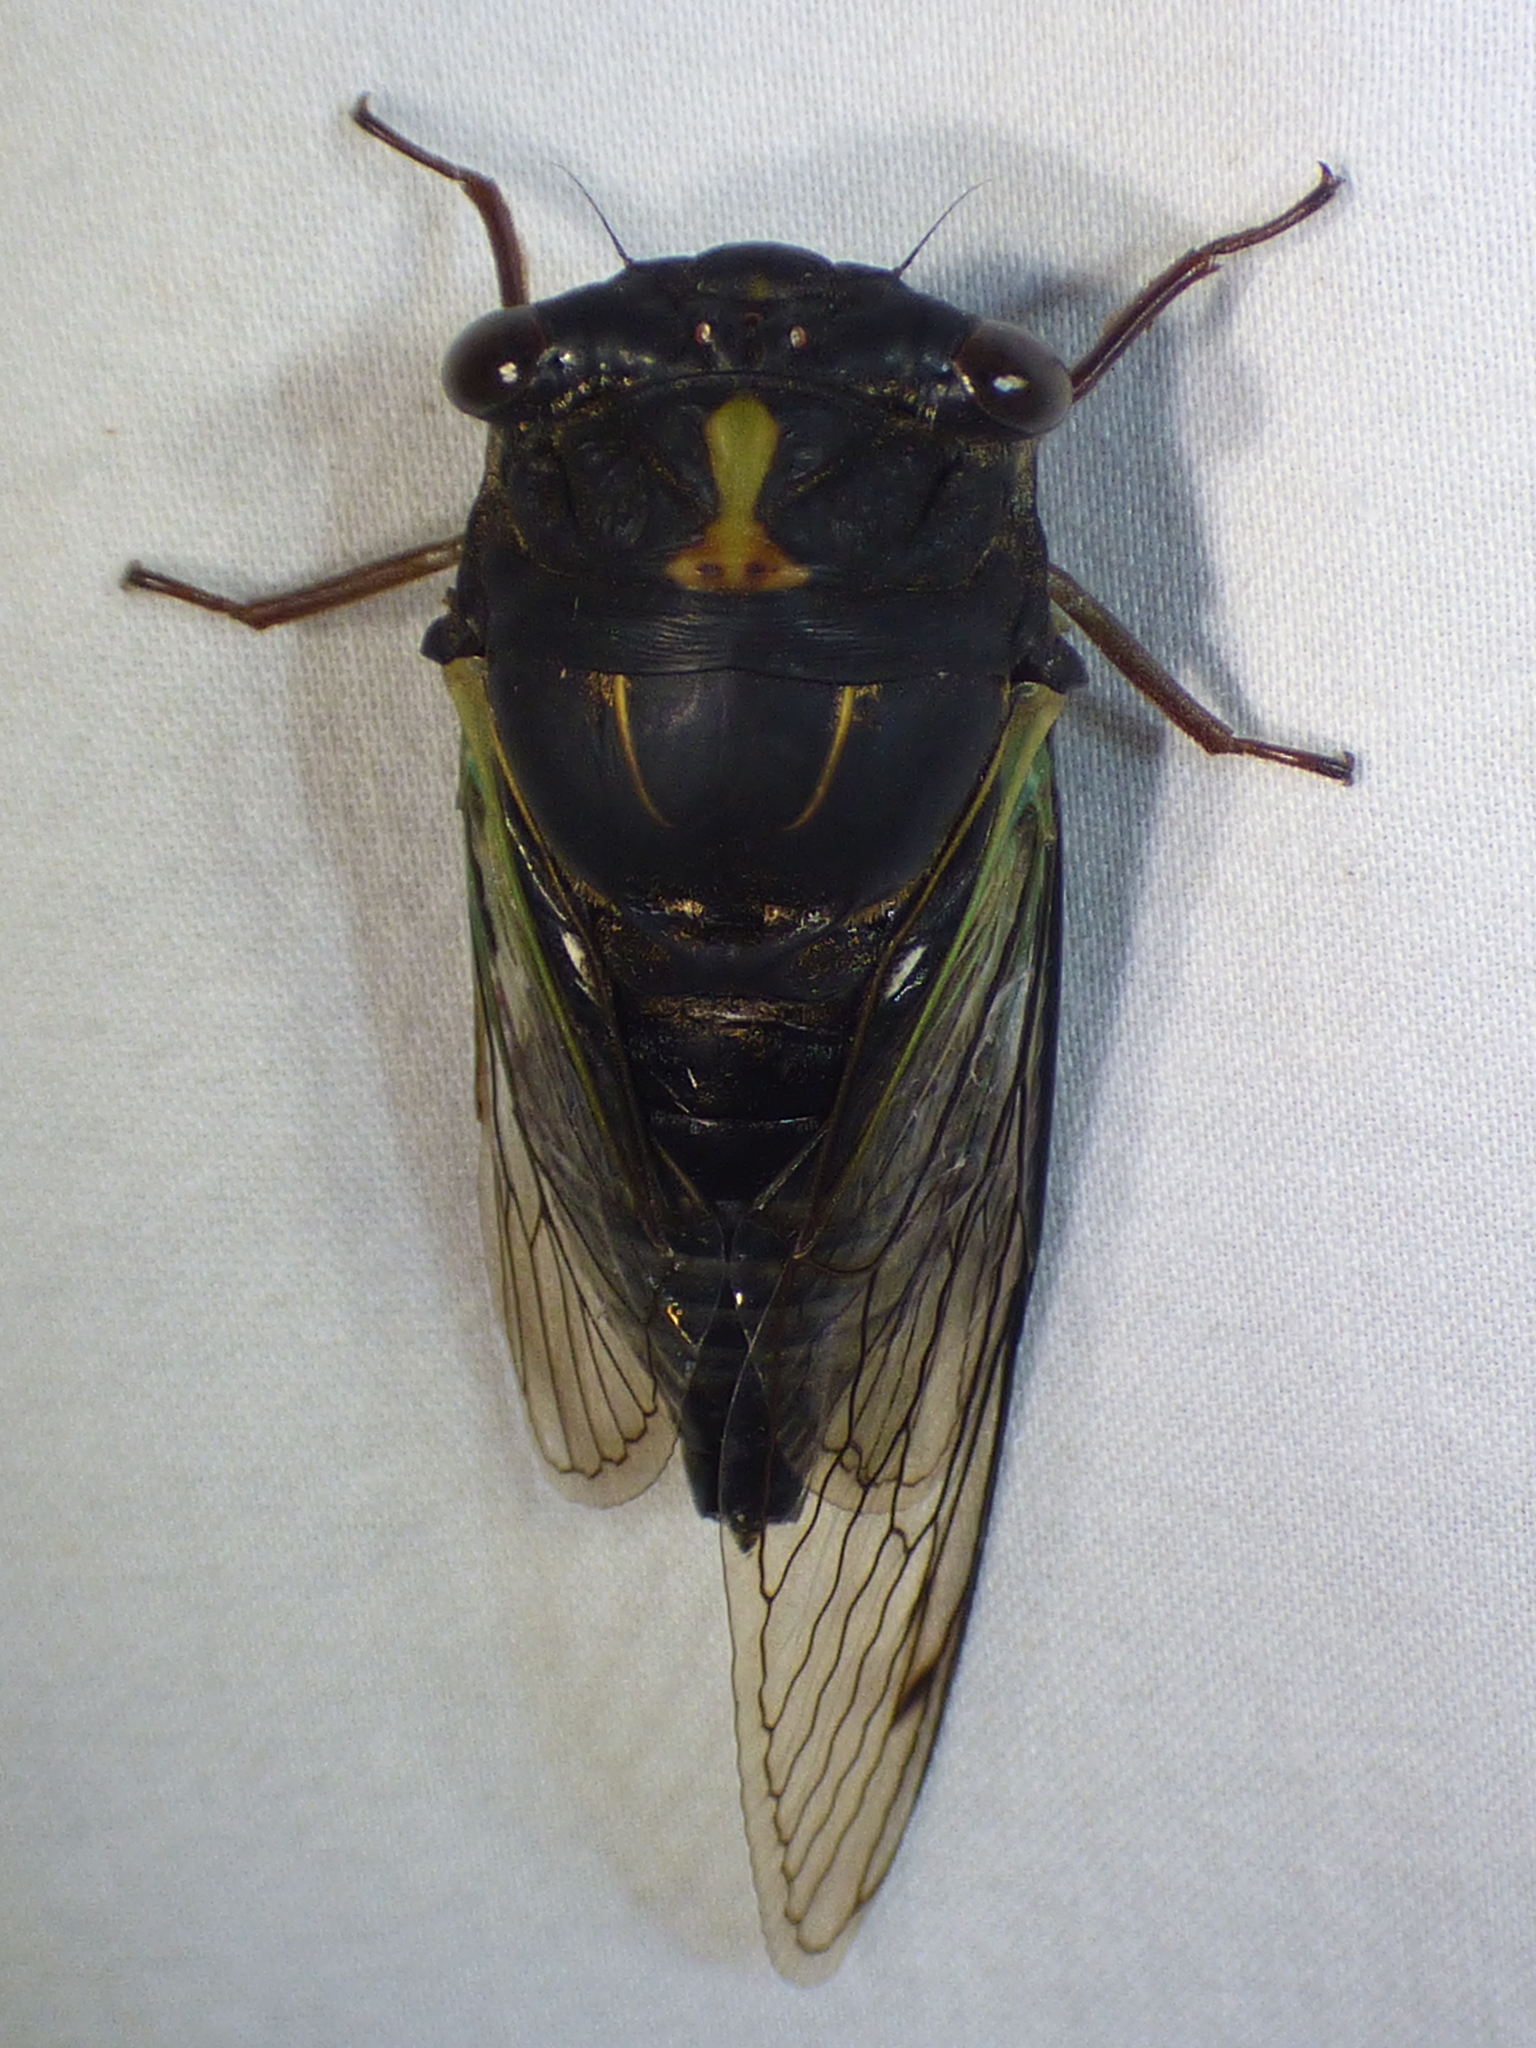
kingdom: Animalia
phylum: Arthropoda
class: Insecta
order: Hemiptera
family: Cicadidae
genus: Neotibicen
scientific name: Neotibicen lyricen
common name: Lyric cicada
